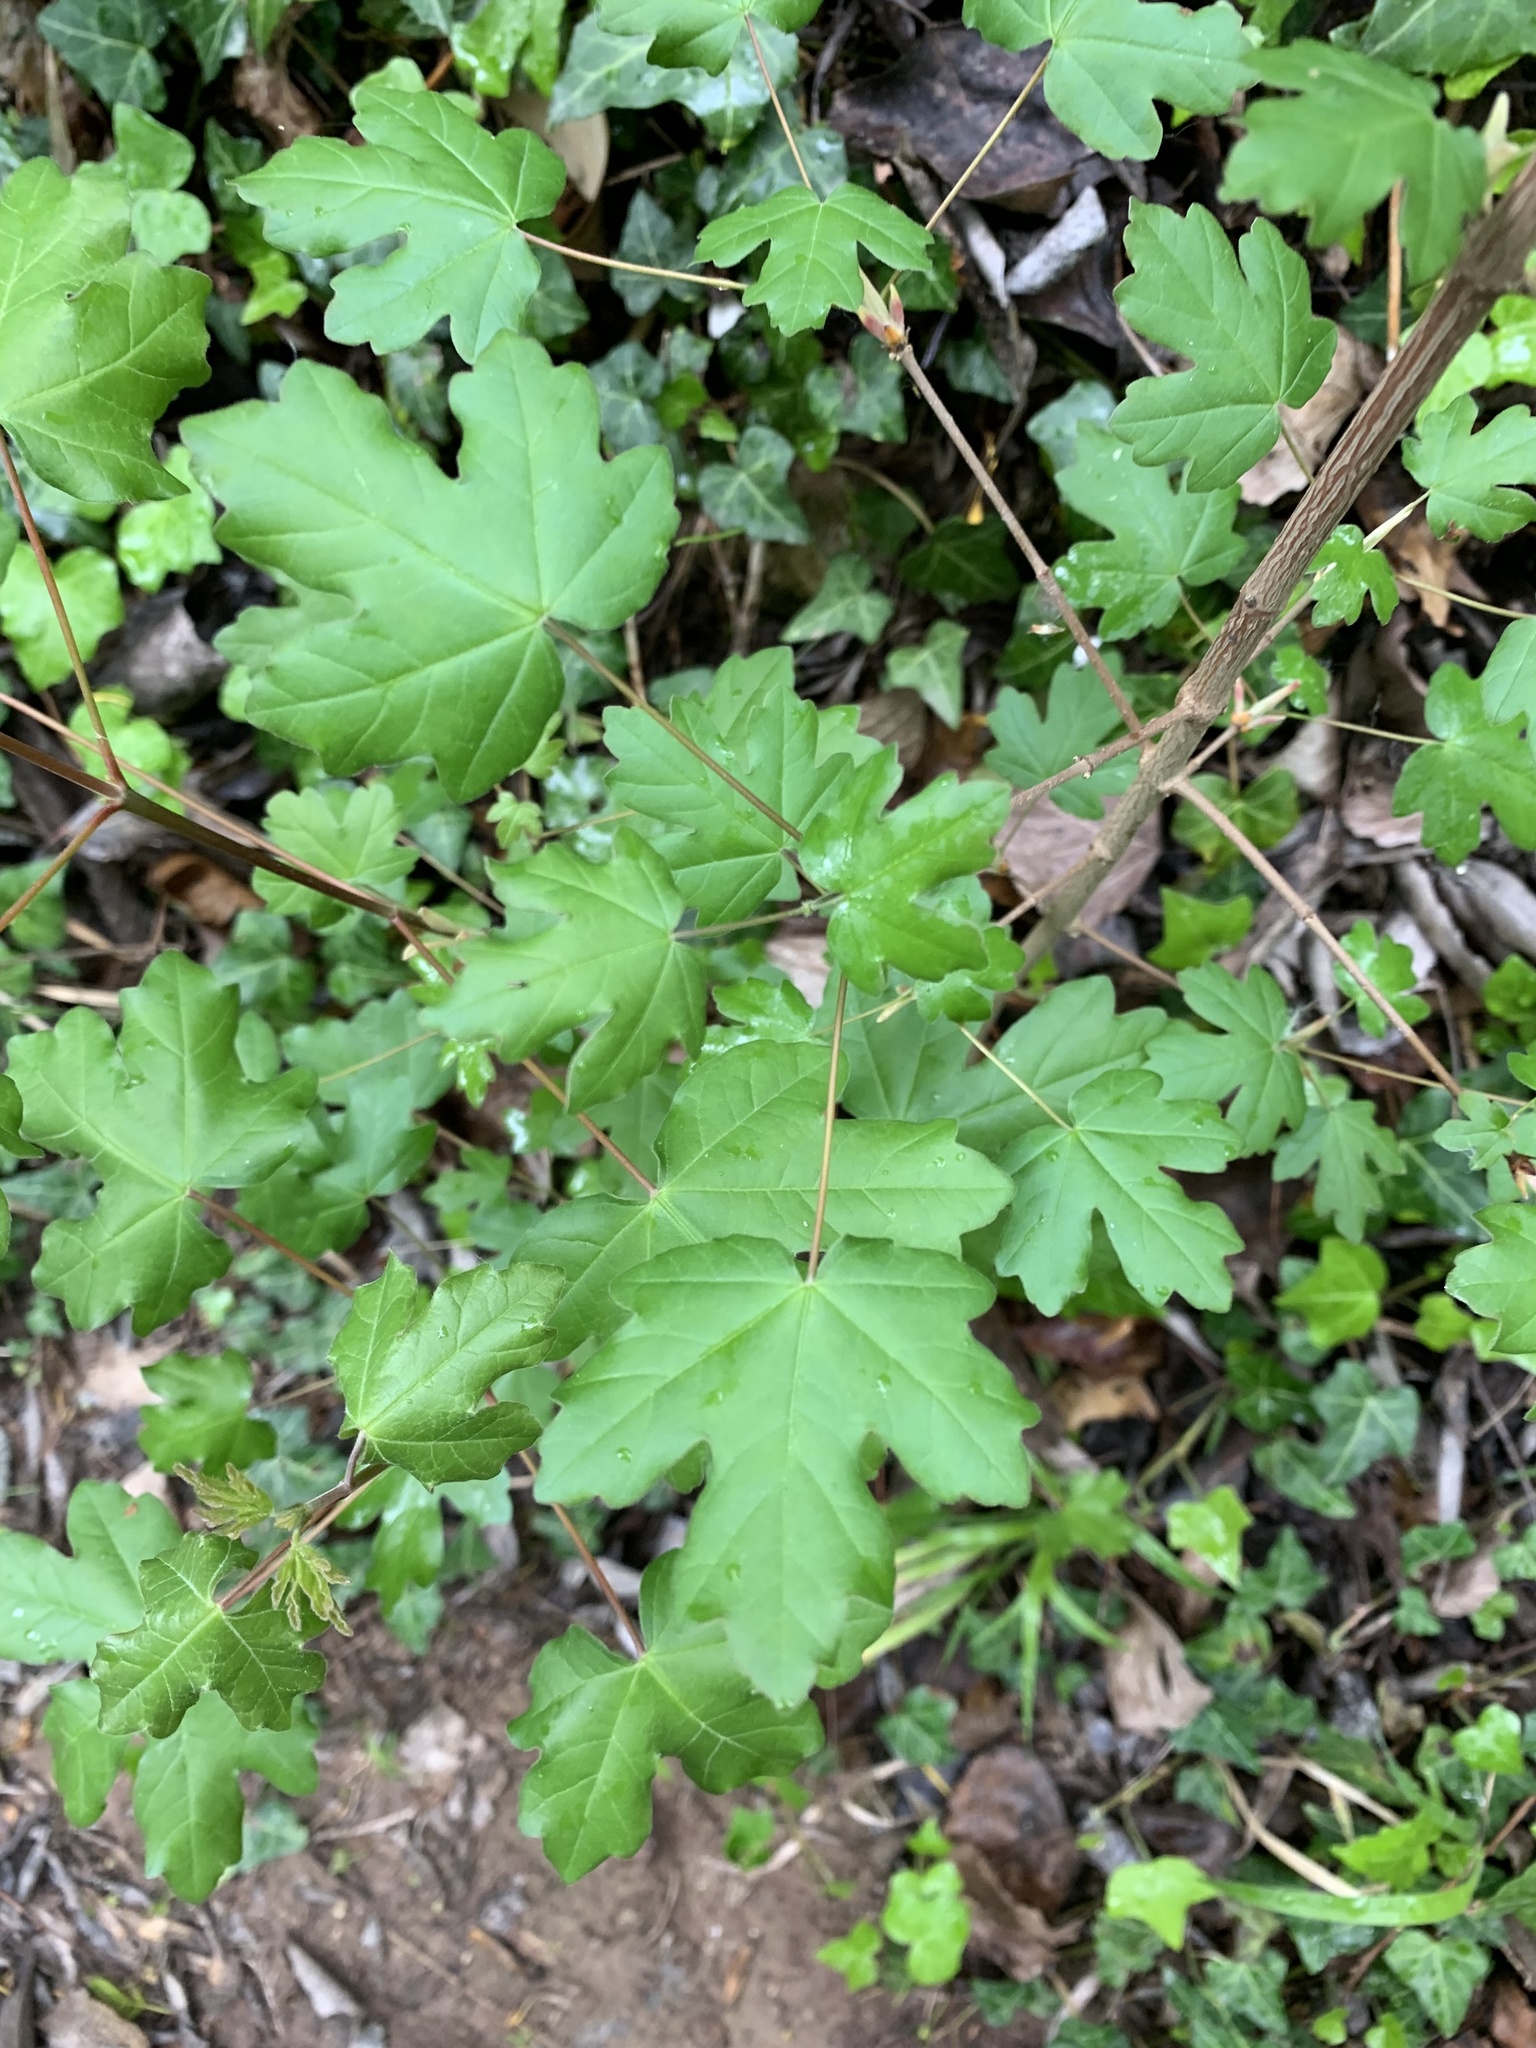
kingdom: Plantae
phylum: Tracheophyta
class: Magnoliopsida
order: Sapindales
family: Sapindaceae
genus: Acer
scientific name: Acer campestre
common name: Field maple
